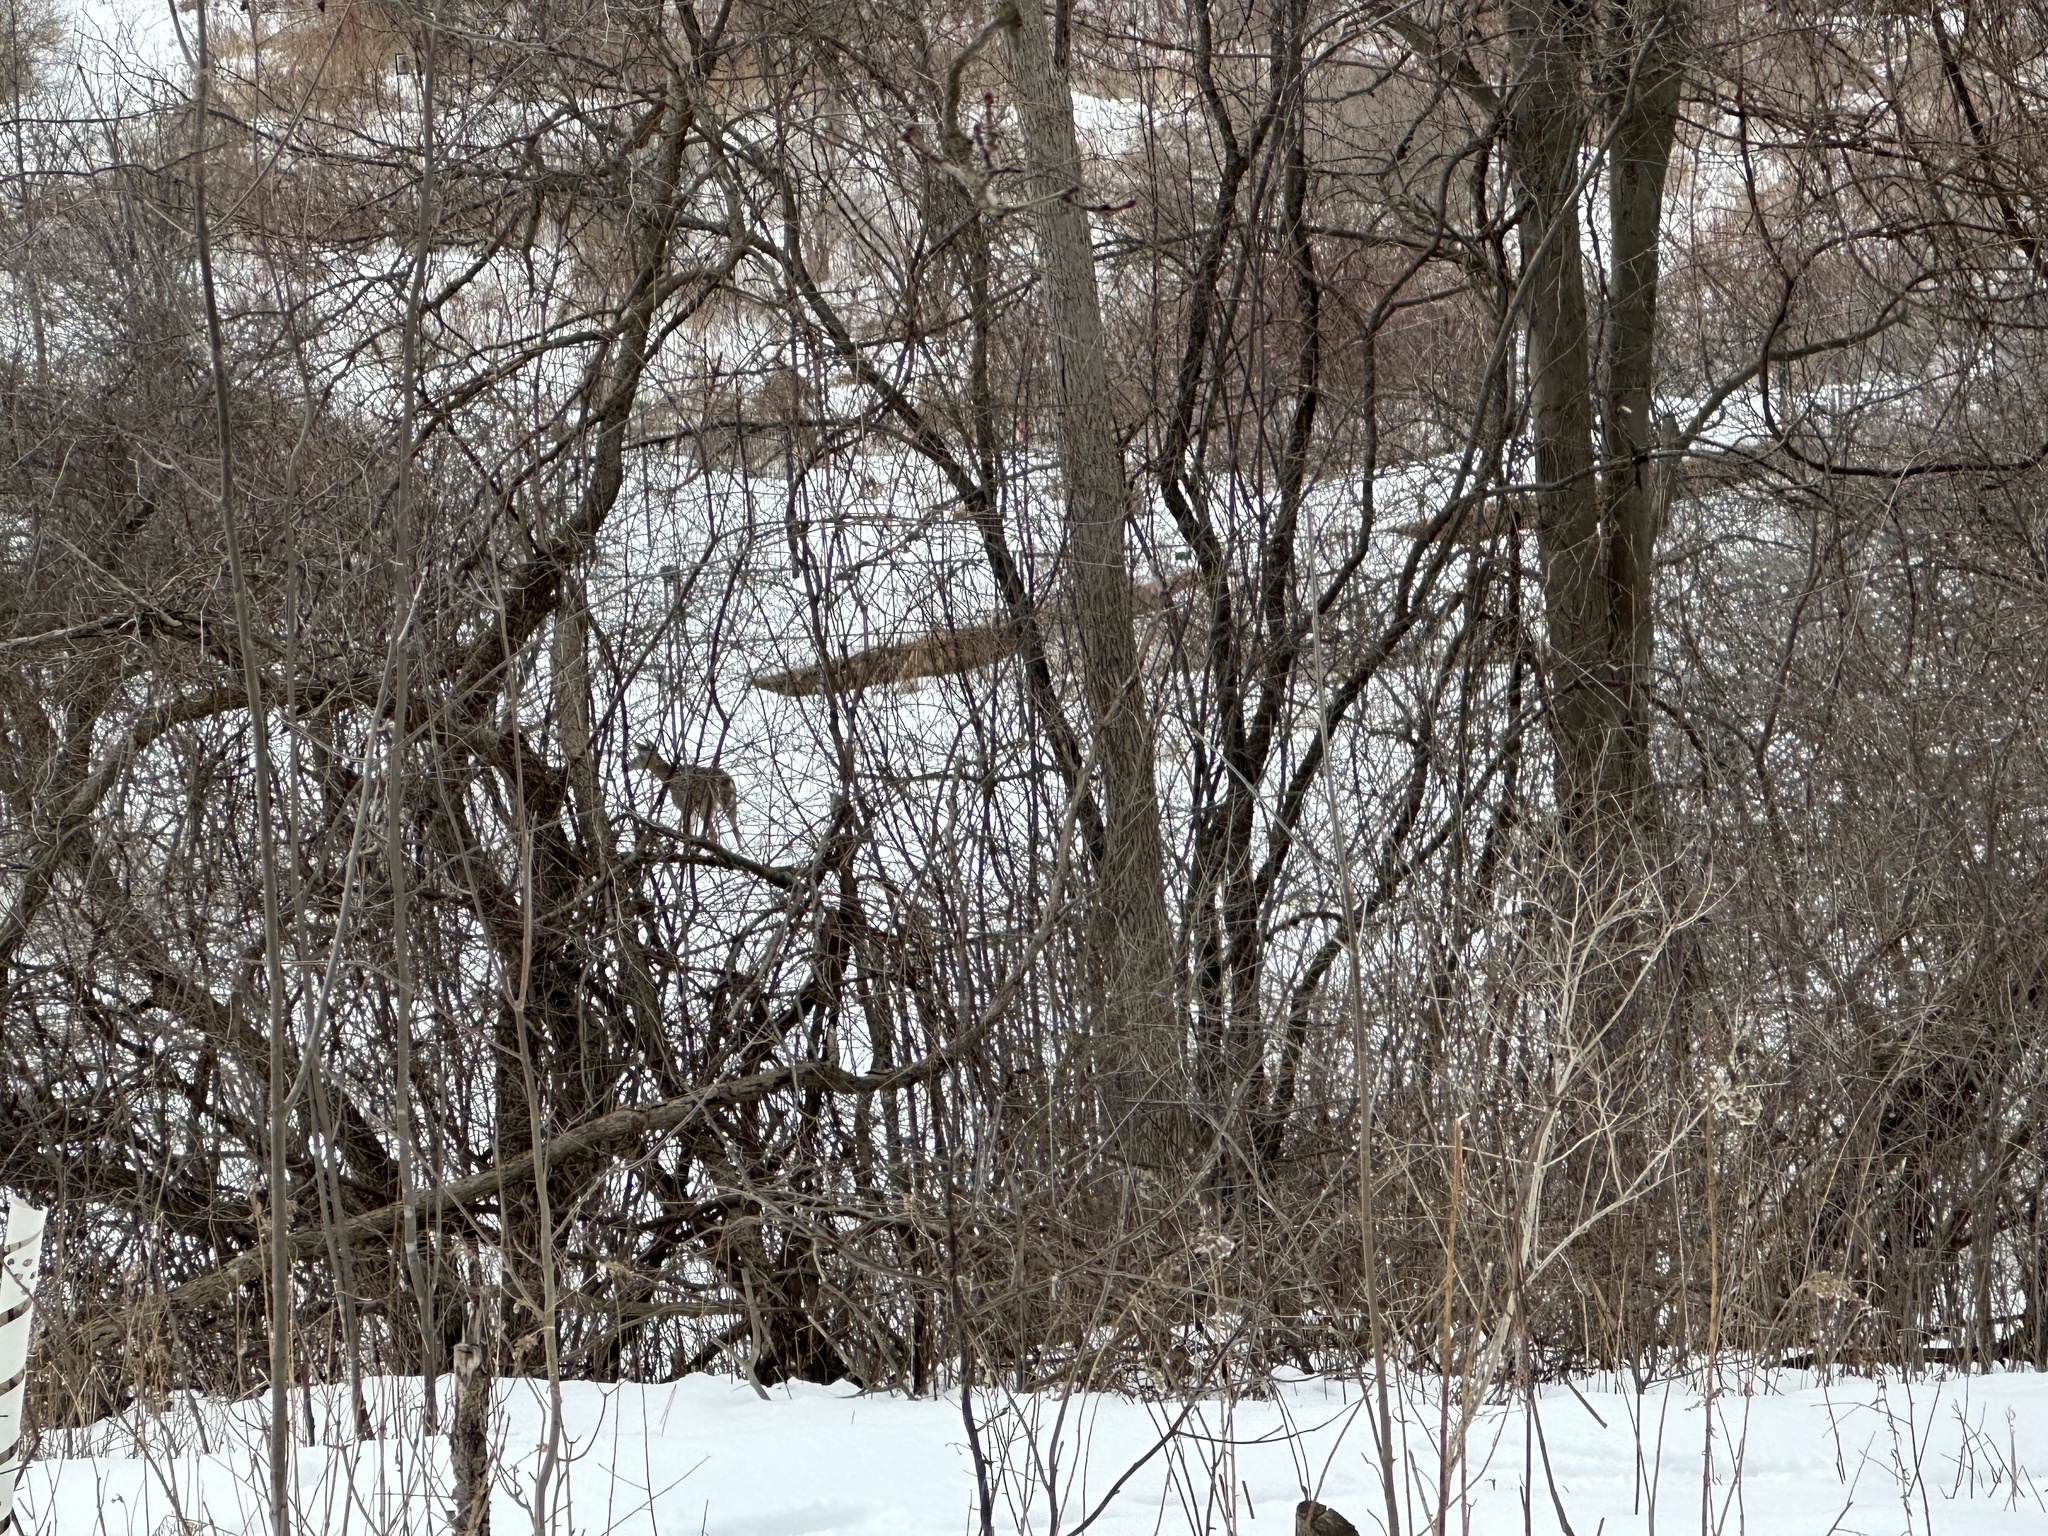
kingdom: Animalia
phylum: Chordata
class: Mammalia
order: Artiodactyla
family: Cervidae
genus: Odocoileus
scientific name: Odocoileus virginianus
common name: White-tailed deer
